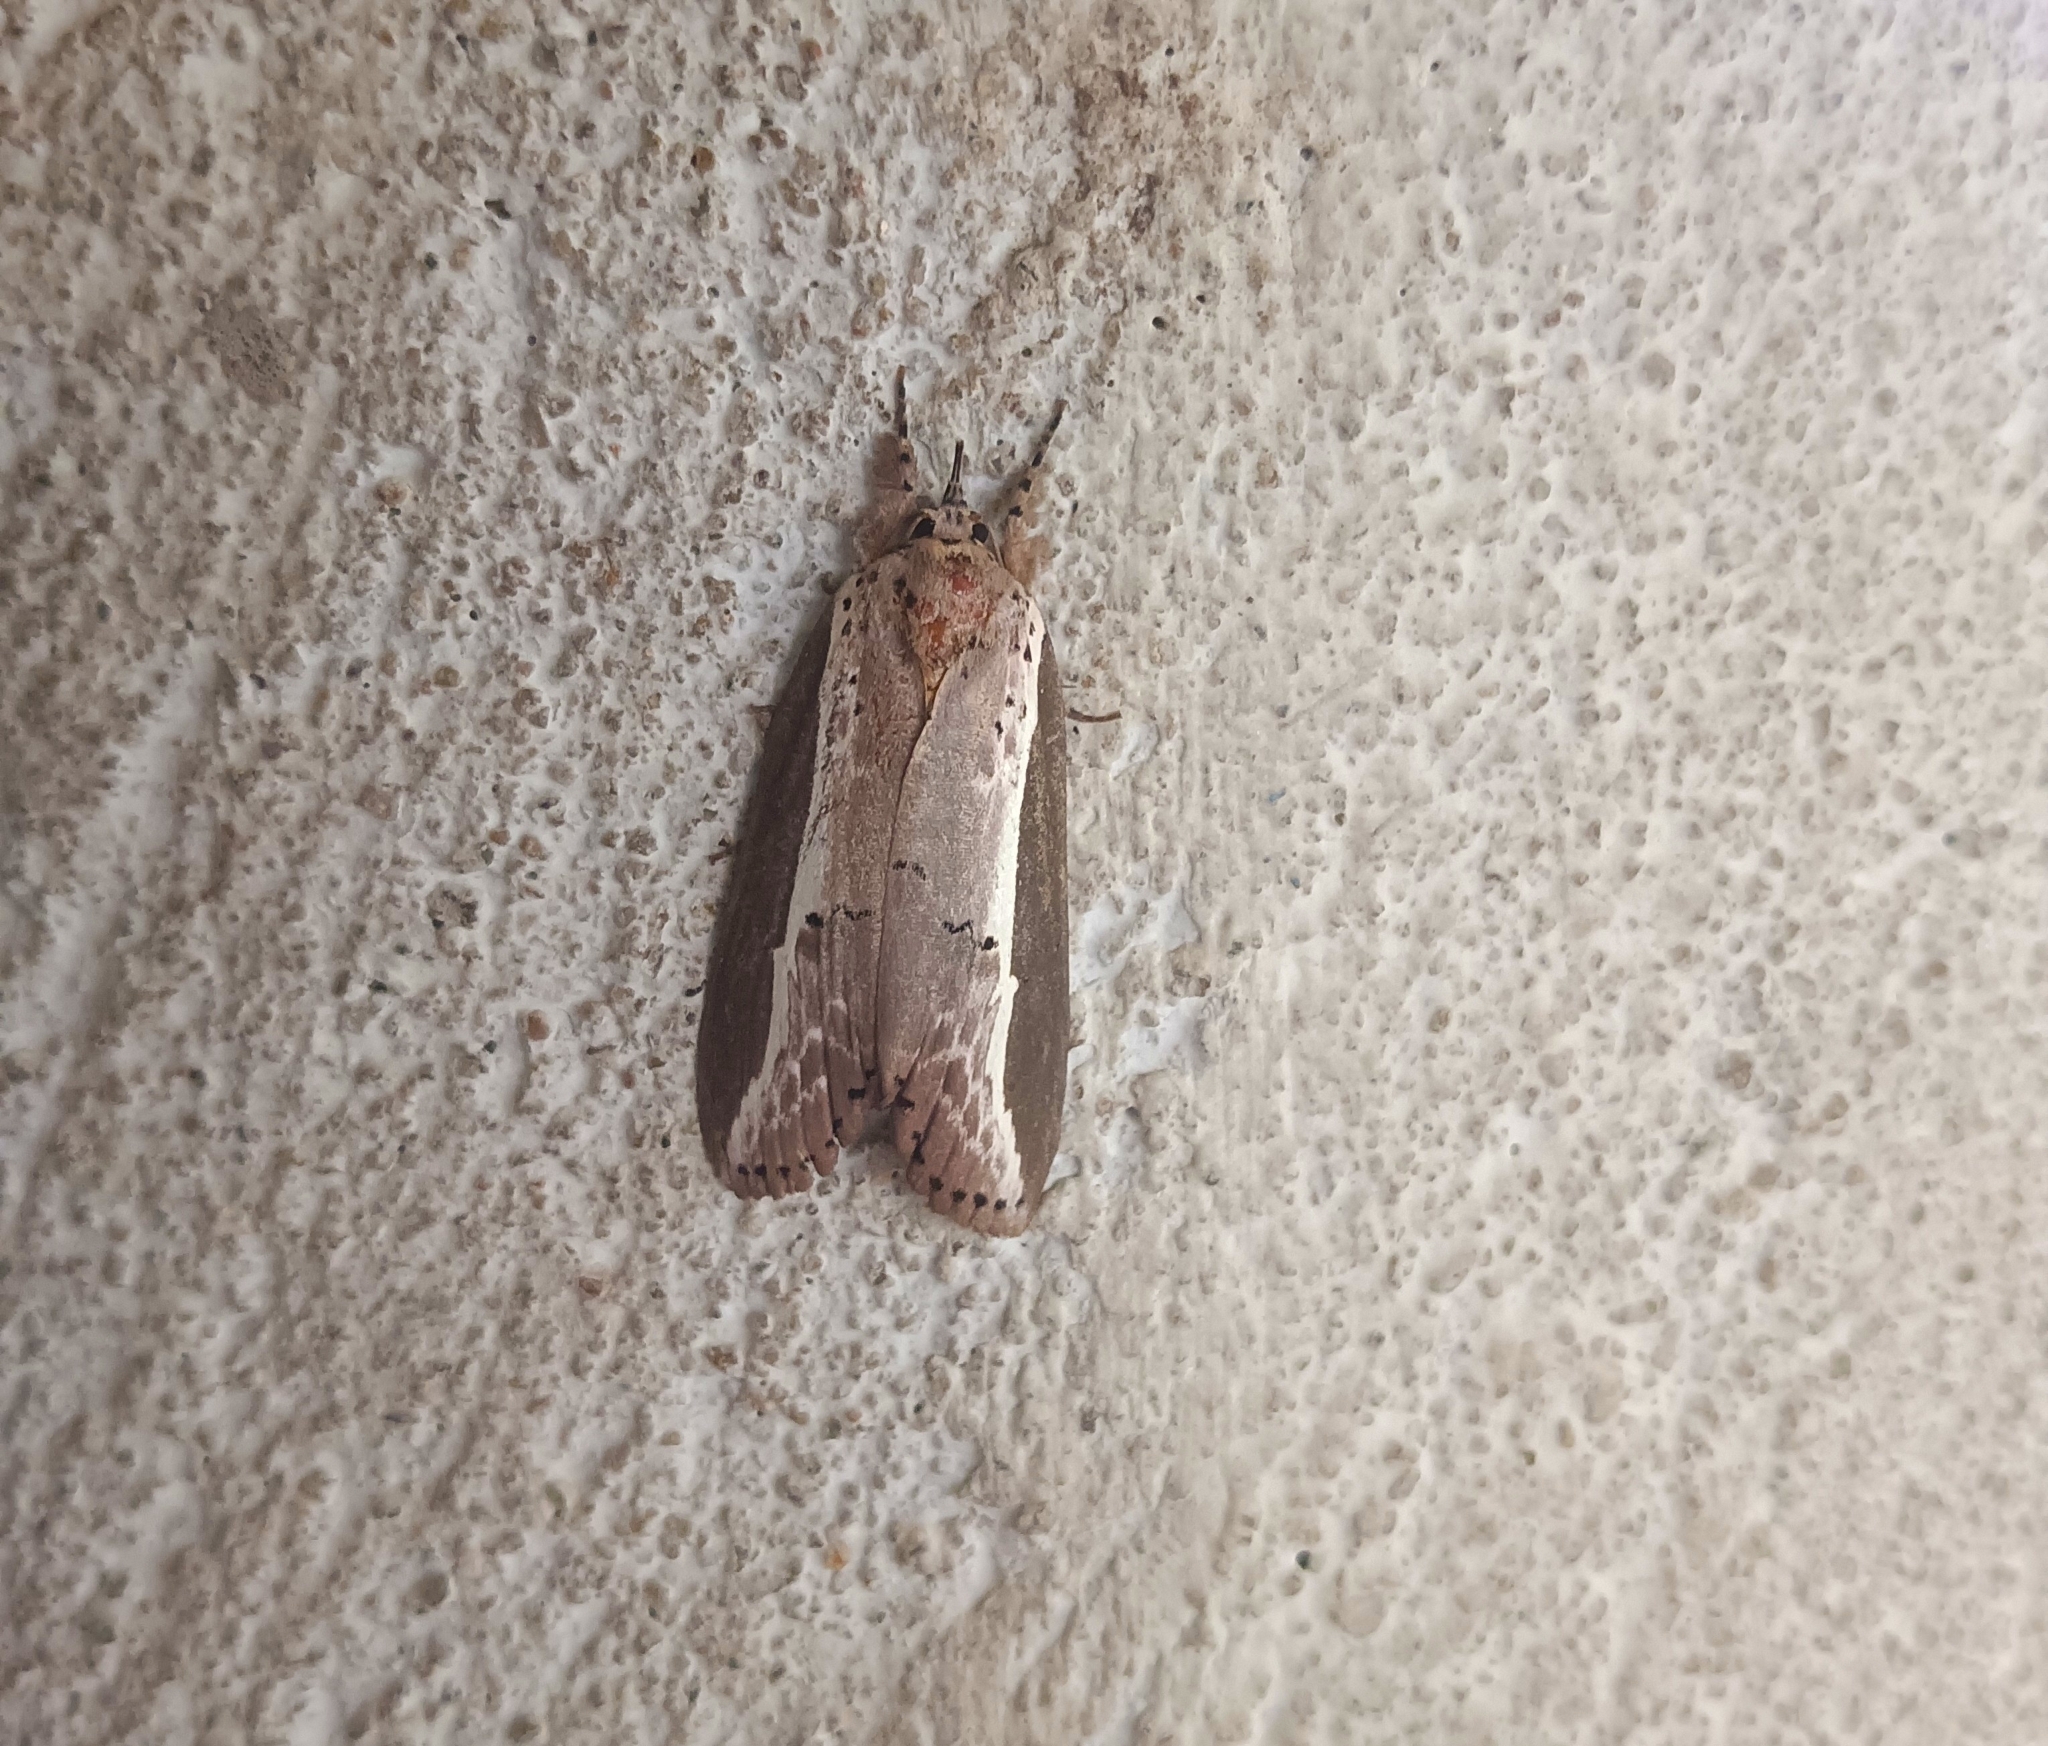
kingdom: Animalia
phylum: Arthropoda
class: Insecta
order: Lepidoptera
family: Nolidae
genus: Eligma
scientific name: Eligma narcissus
